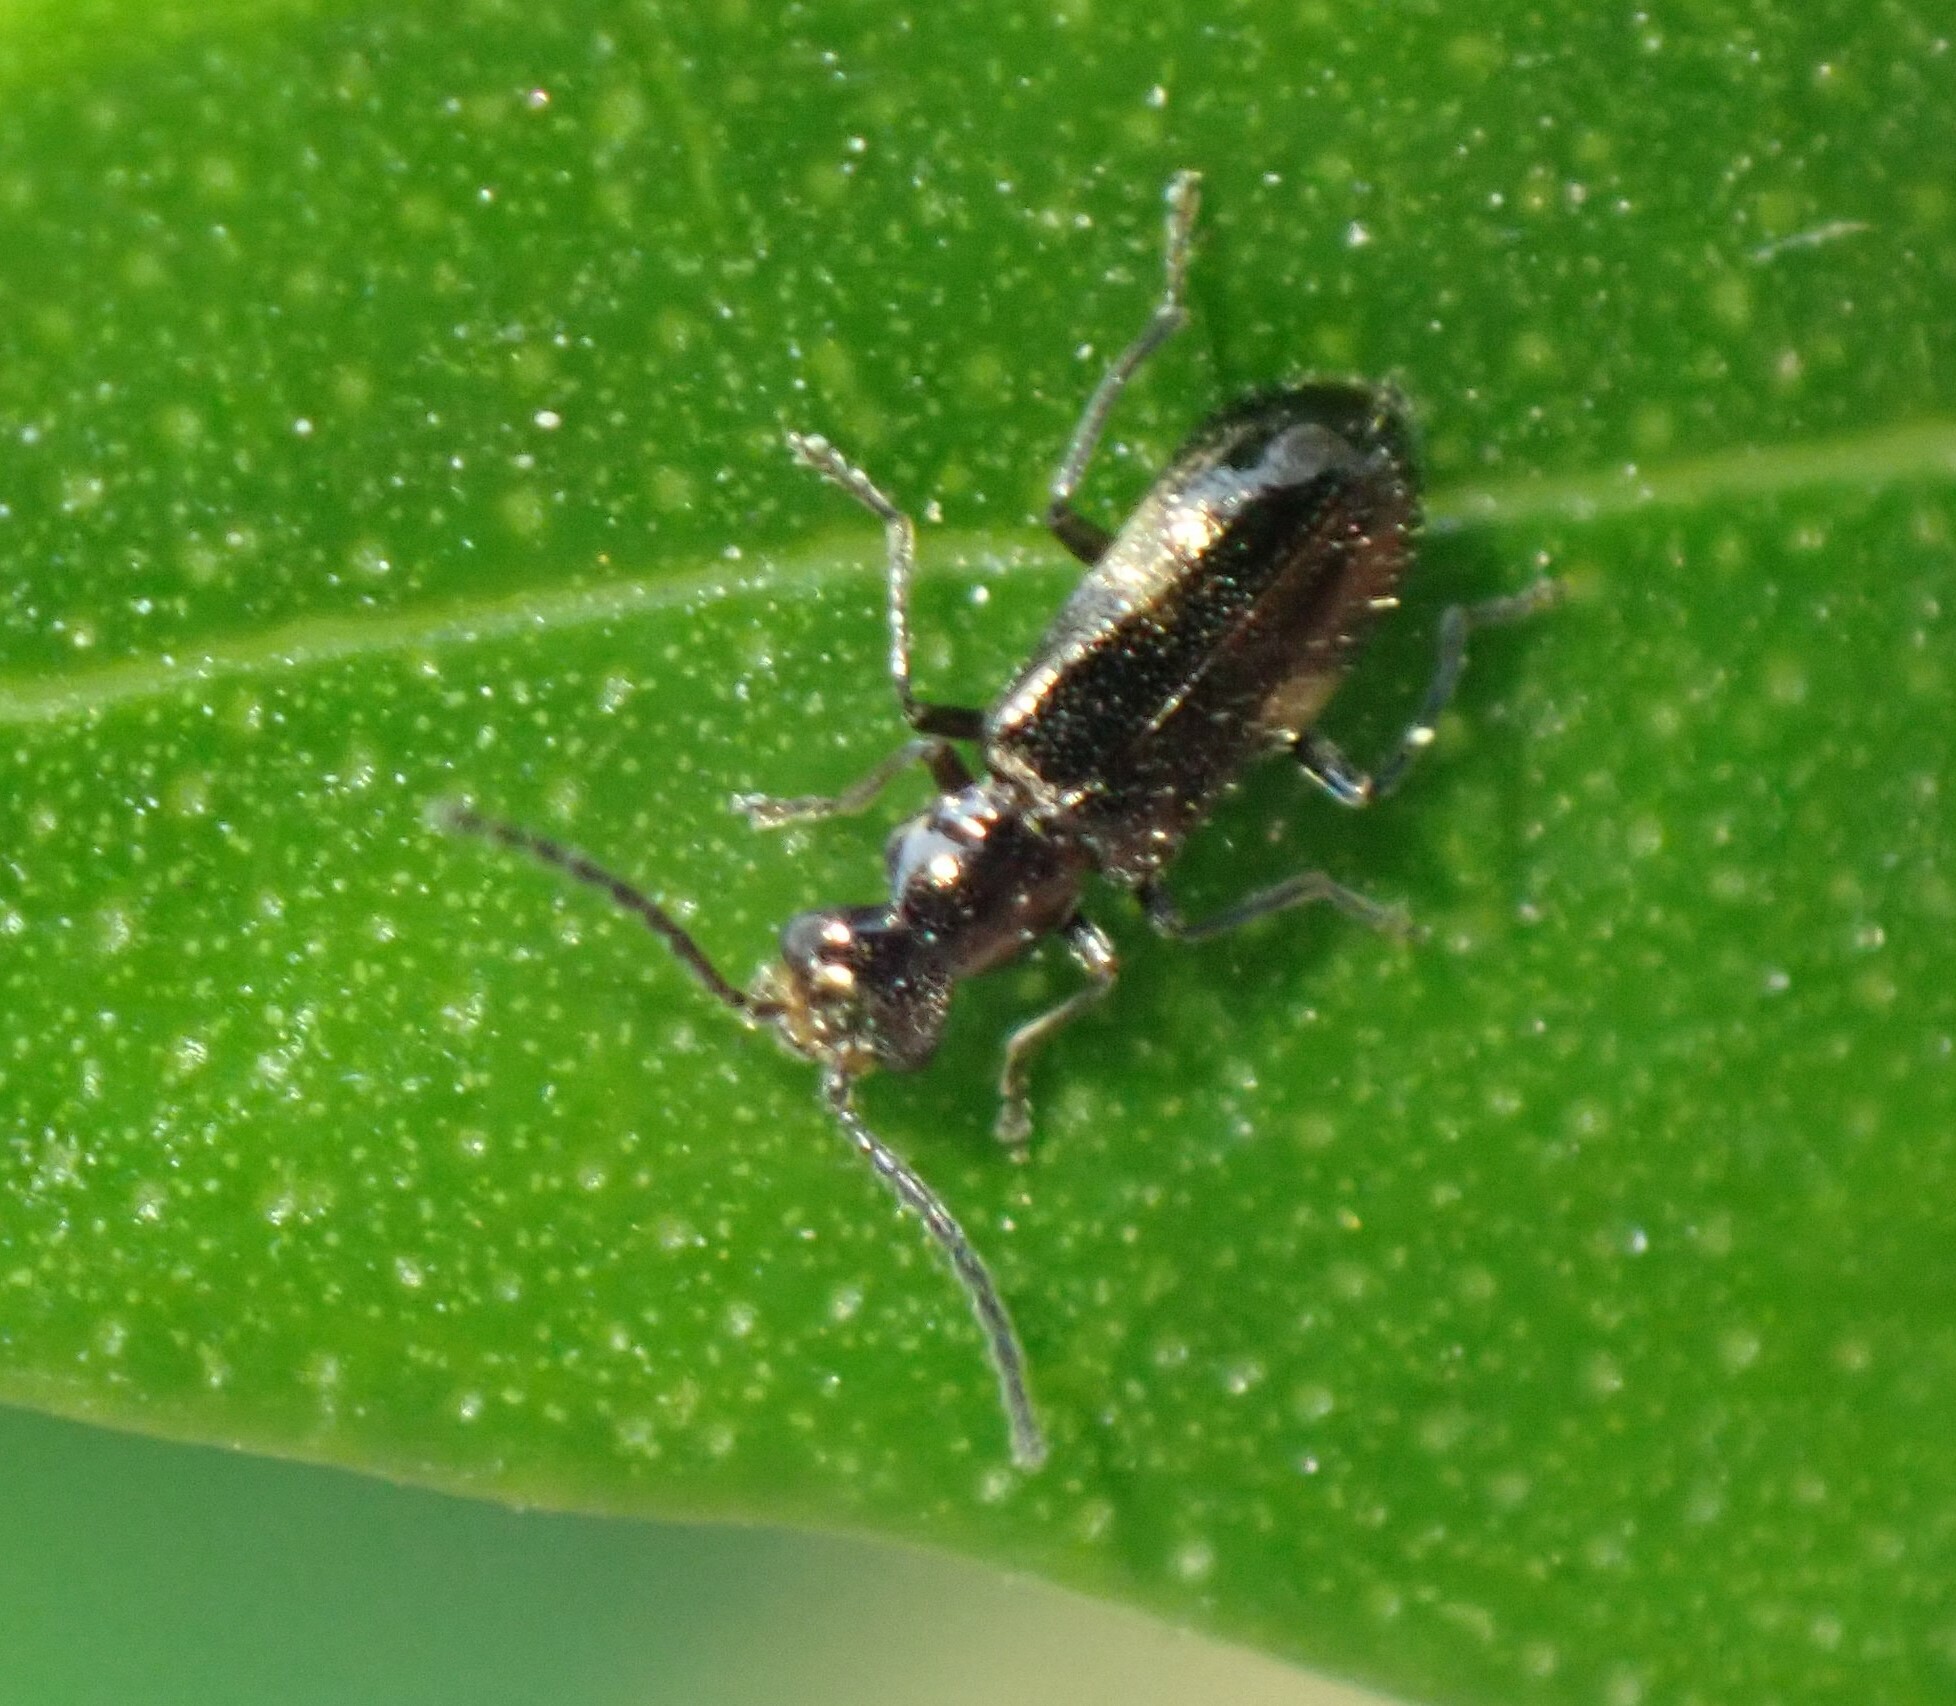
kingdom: Animalia
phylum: Arthropoda
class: Insecta
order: Coleoptera
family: Melyridae
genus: Hypattalus
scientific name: Hypattalus
